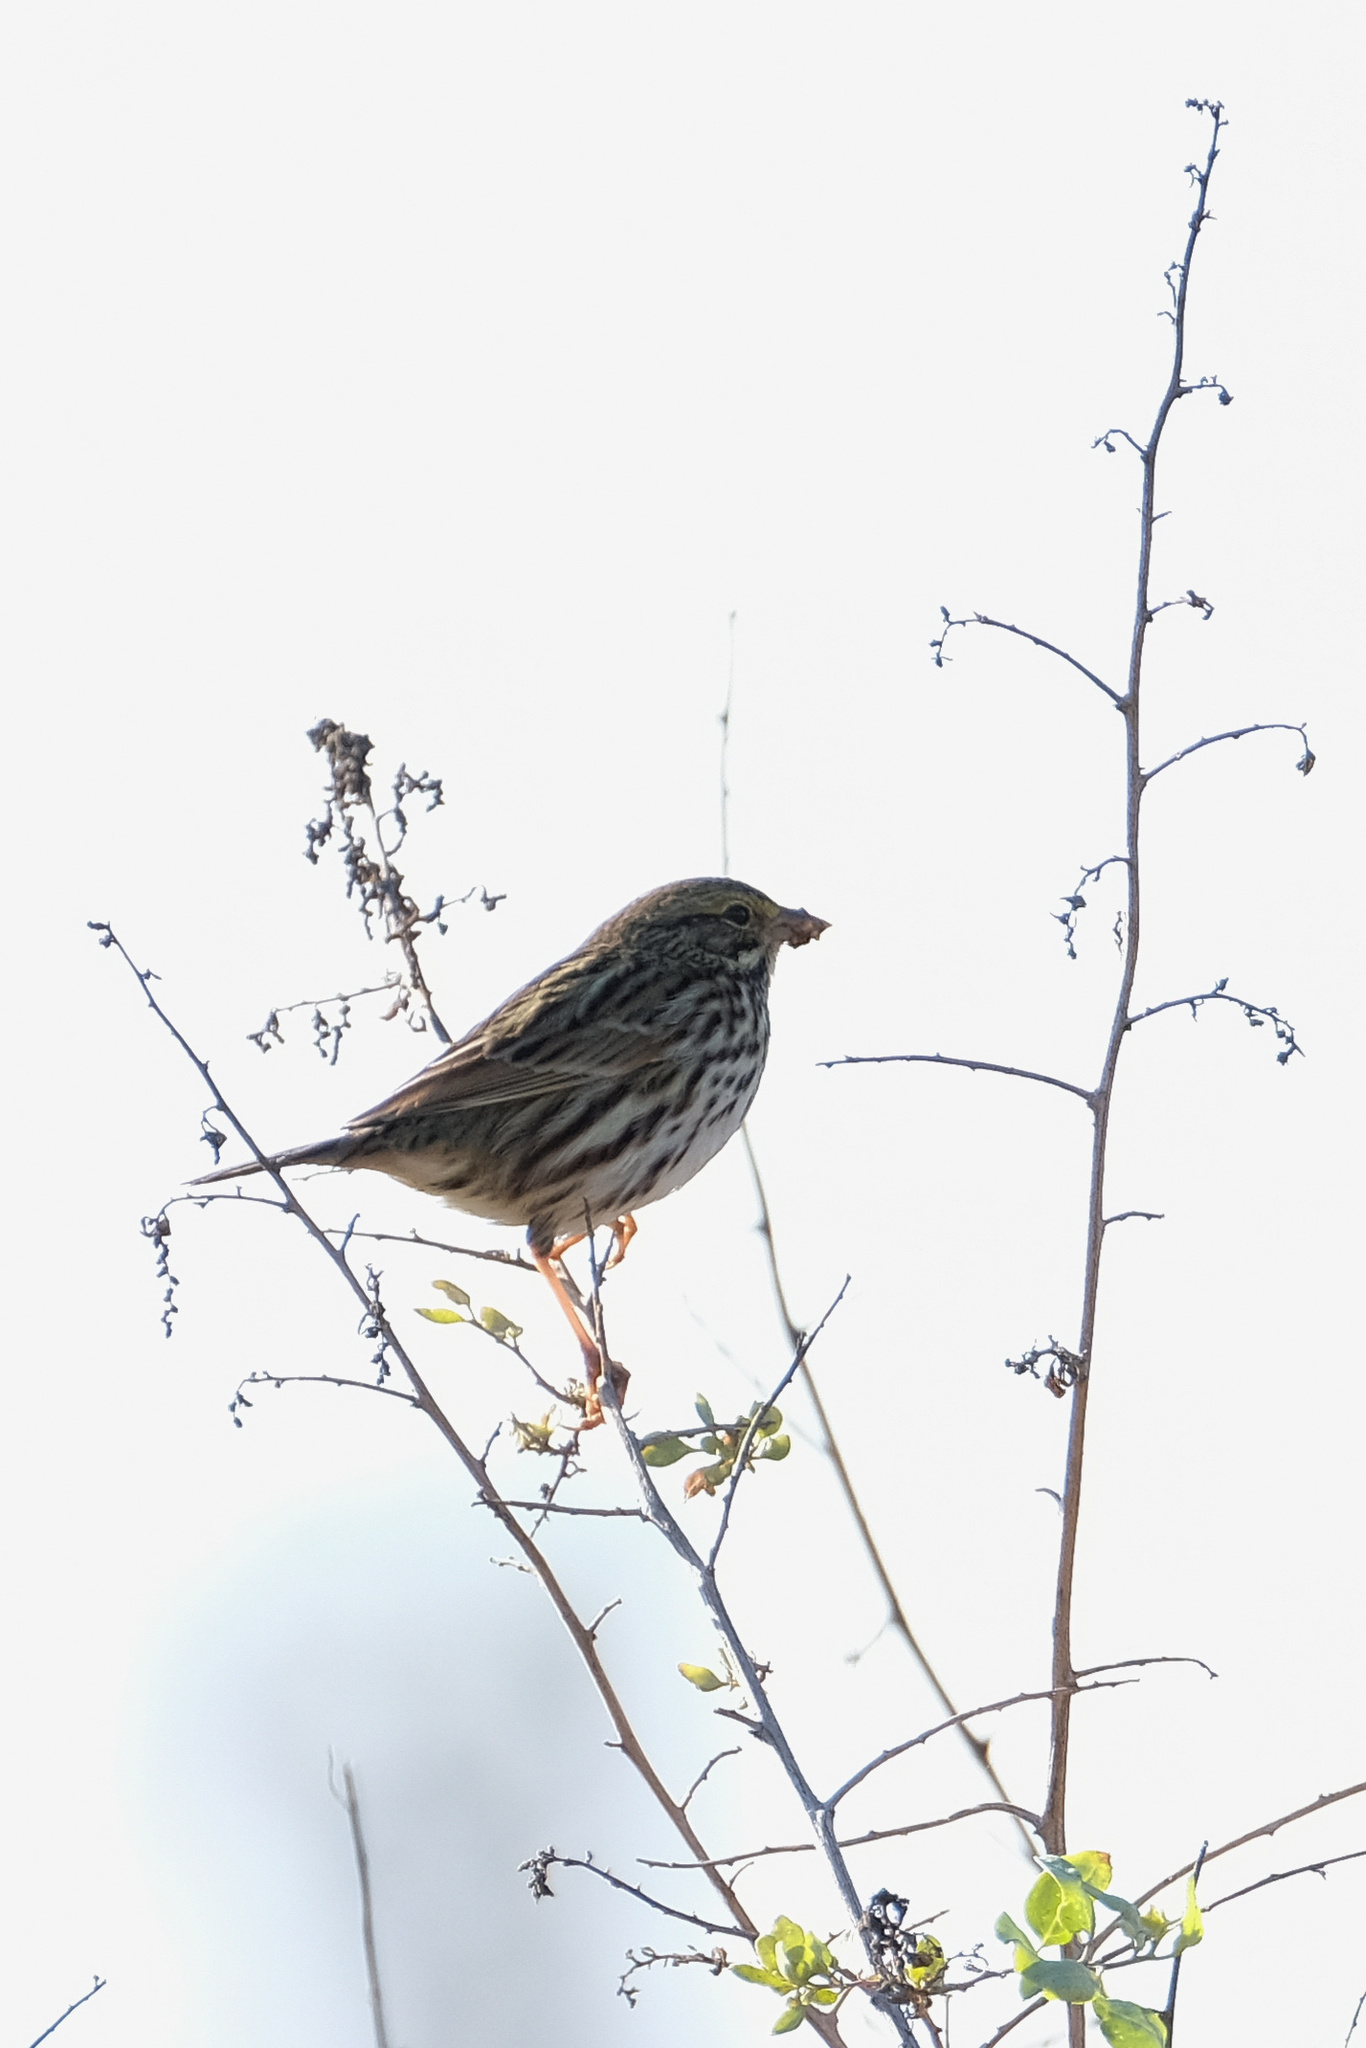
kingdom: Animalia
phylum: Chordata
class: Aves
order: Passeriformes
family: Passerellidae
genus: Passerculus
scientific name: Passerculus sandwichensis
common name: Savannah sparrow
